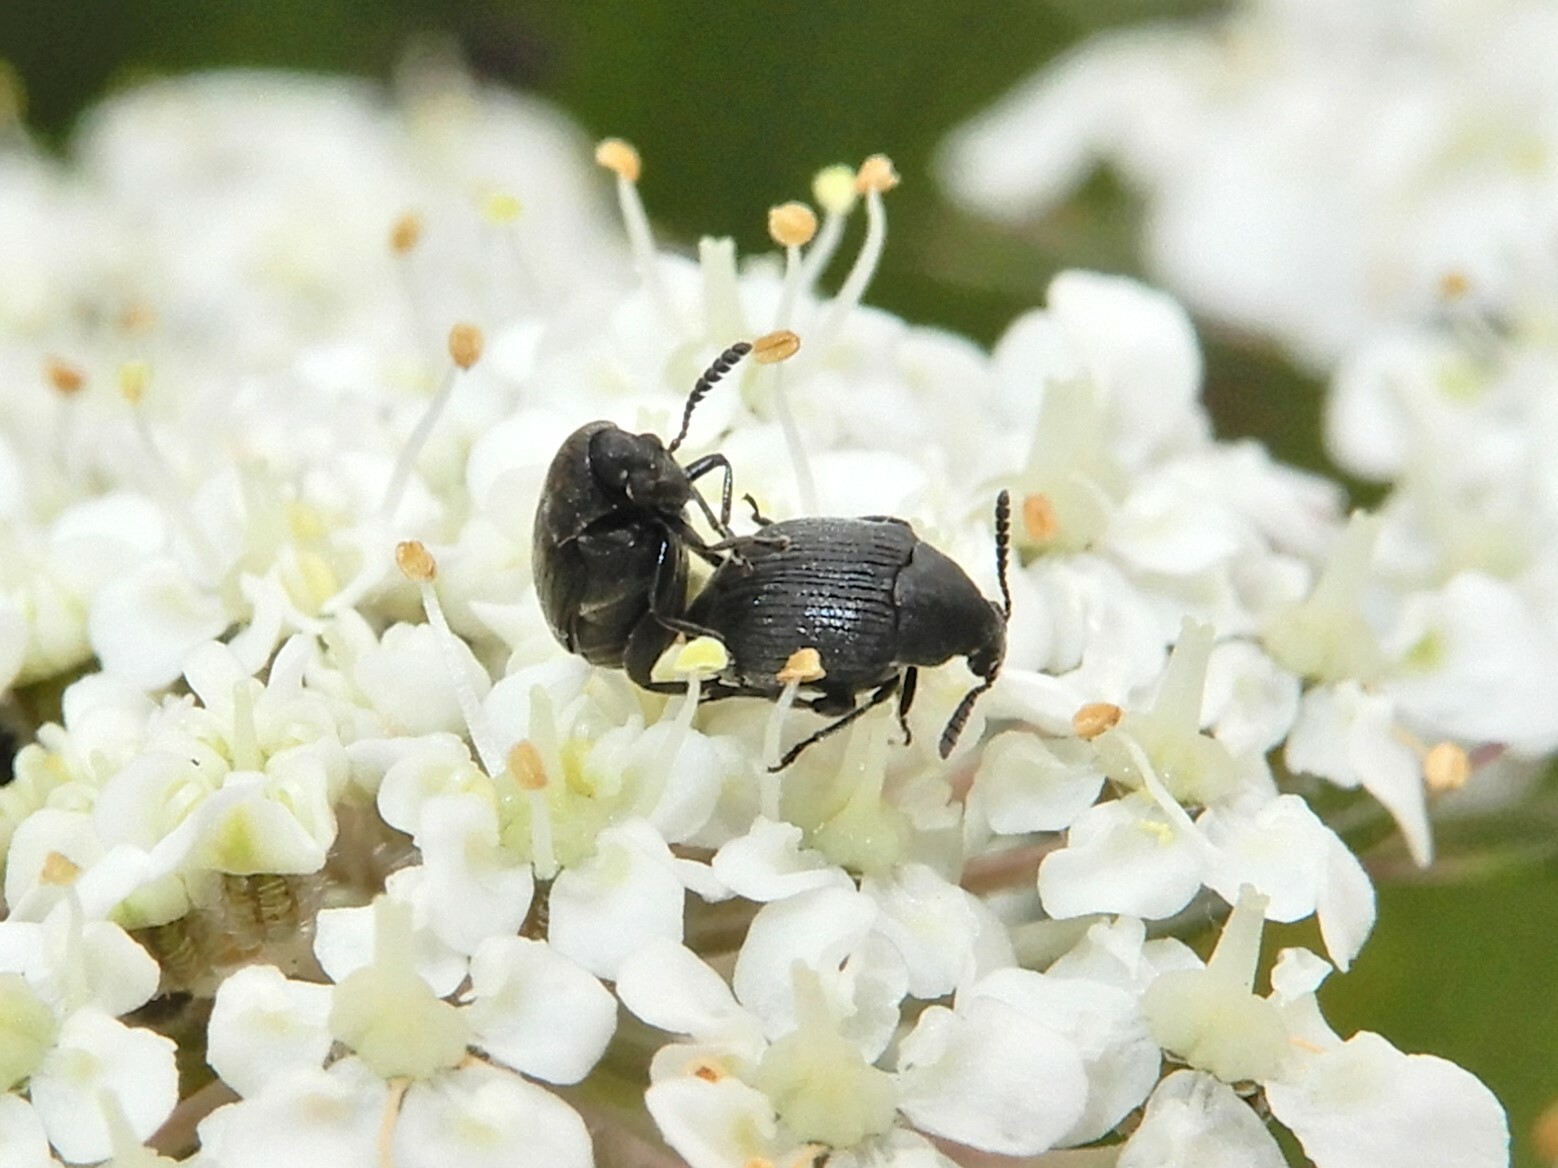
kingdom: Animalia
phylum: Arthropoda
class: Insecta
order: Coleoptera
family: Chrysomelidae
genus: Bruchidius
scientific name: Bruchidius villosus
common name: Scotch broom bruchid
